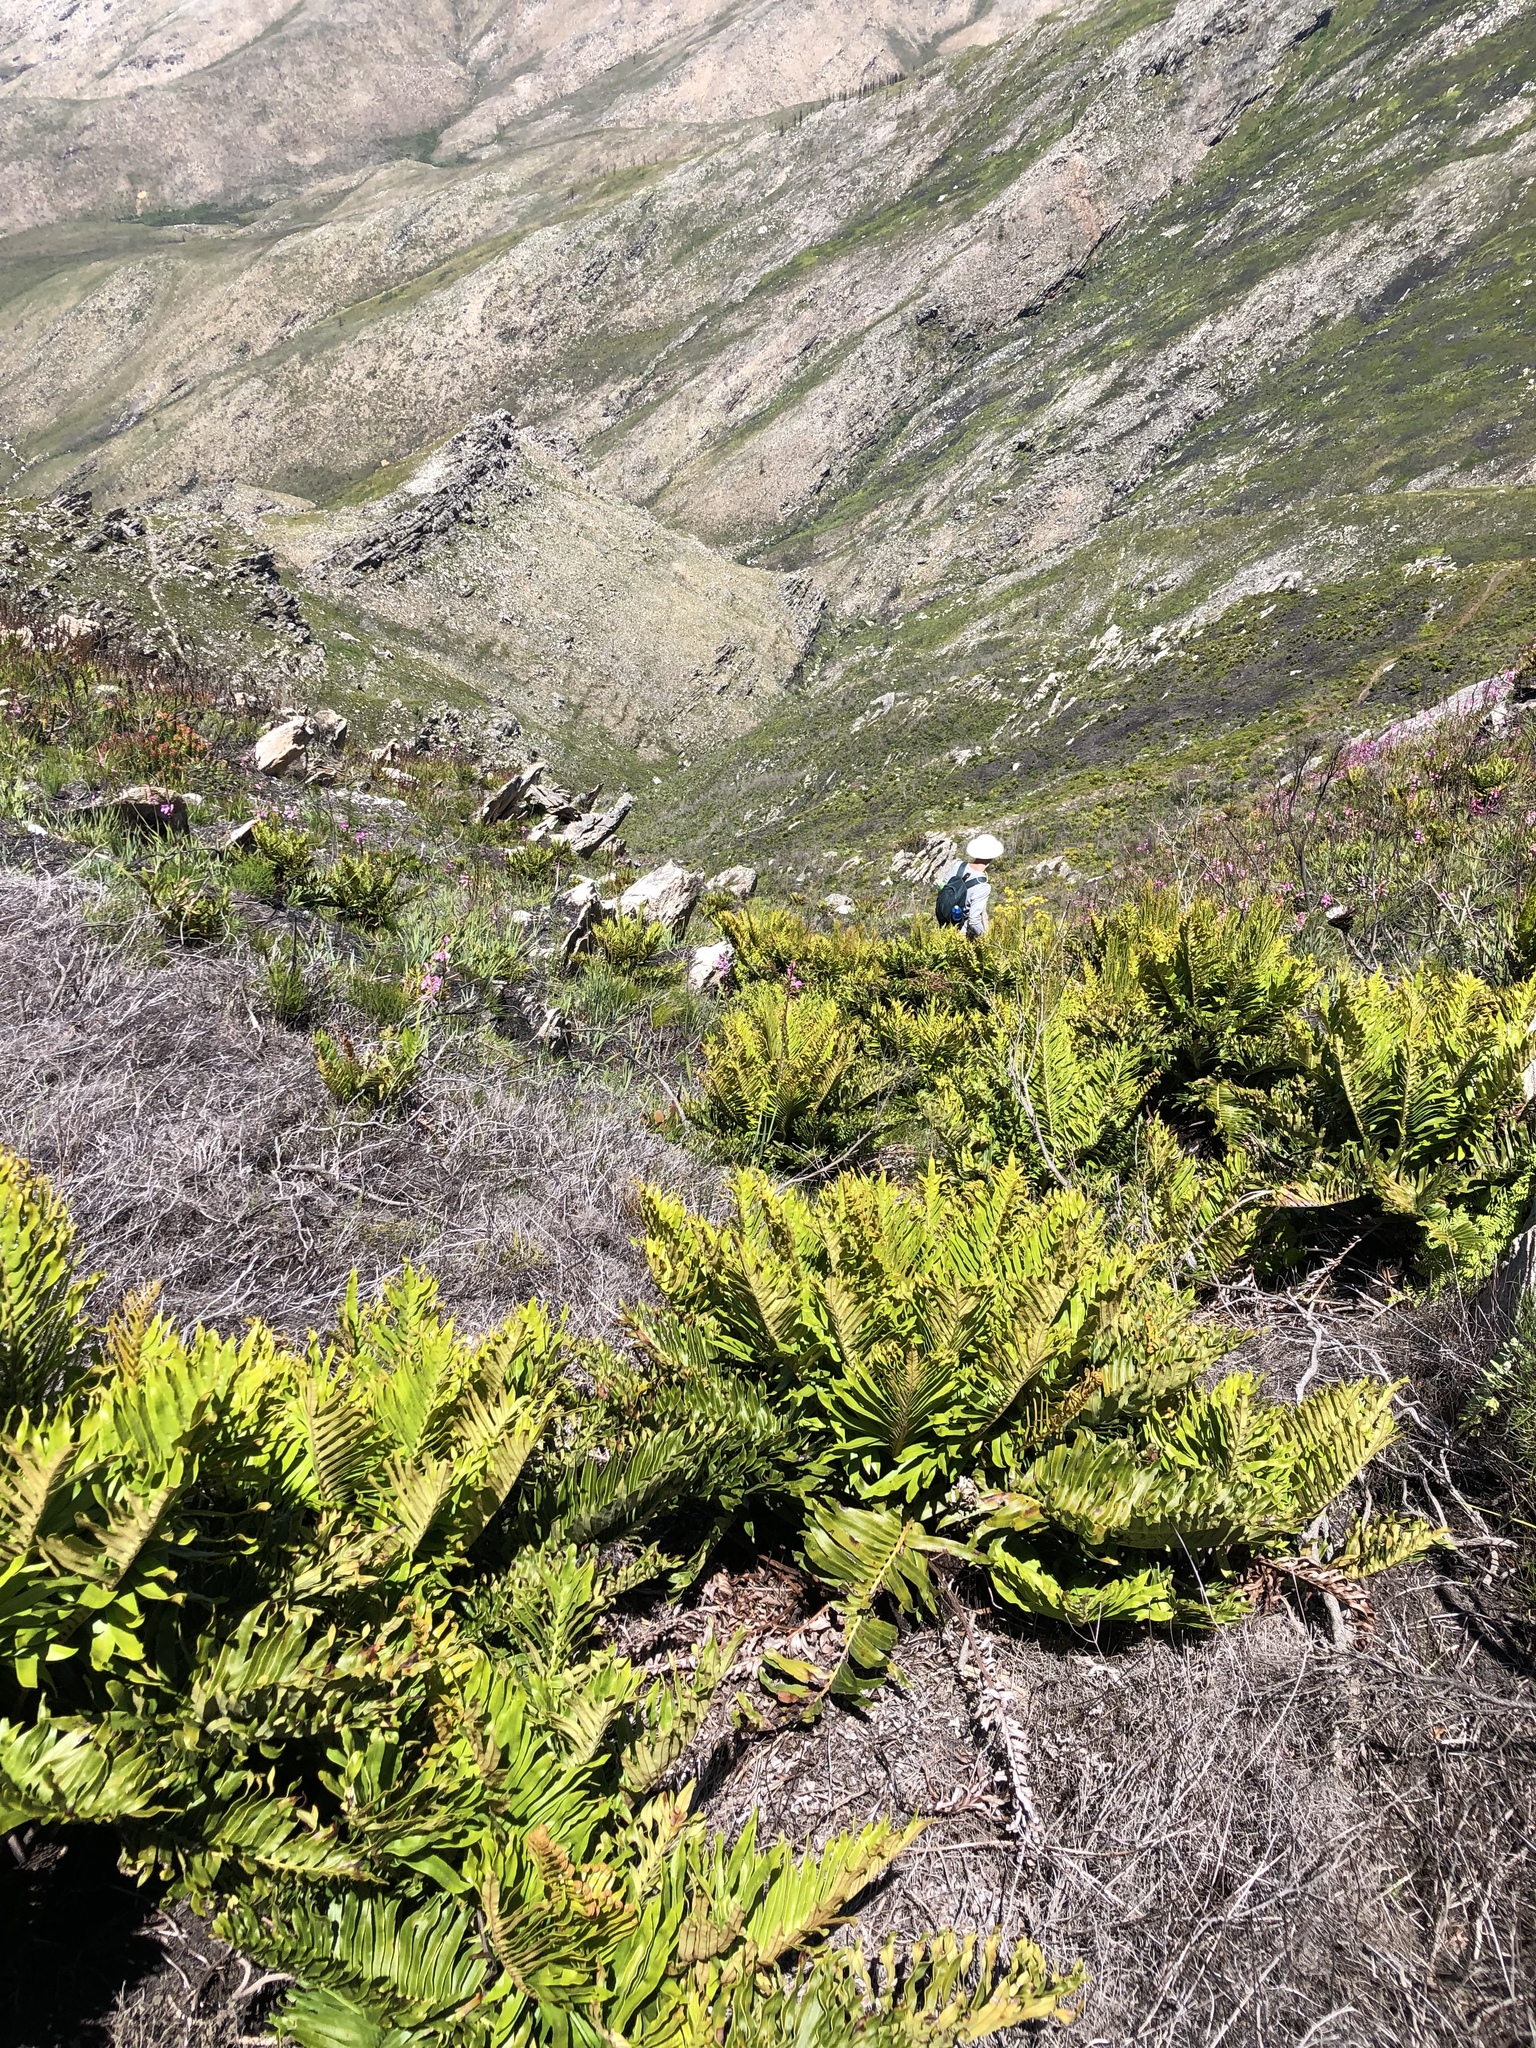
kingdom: Plantae
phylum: Tracheophyta
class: Polypodiopsida
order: Polypodiales
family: Blechnaceae
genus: Lomariocycas
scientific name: Lomariocycas tabularis
